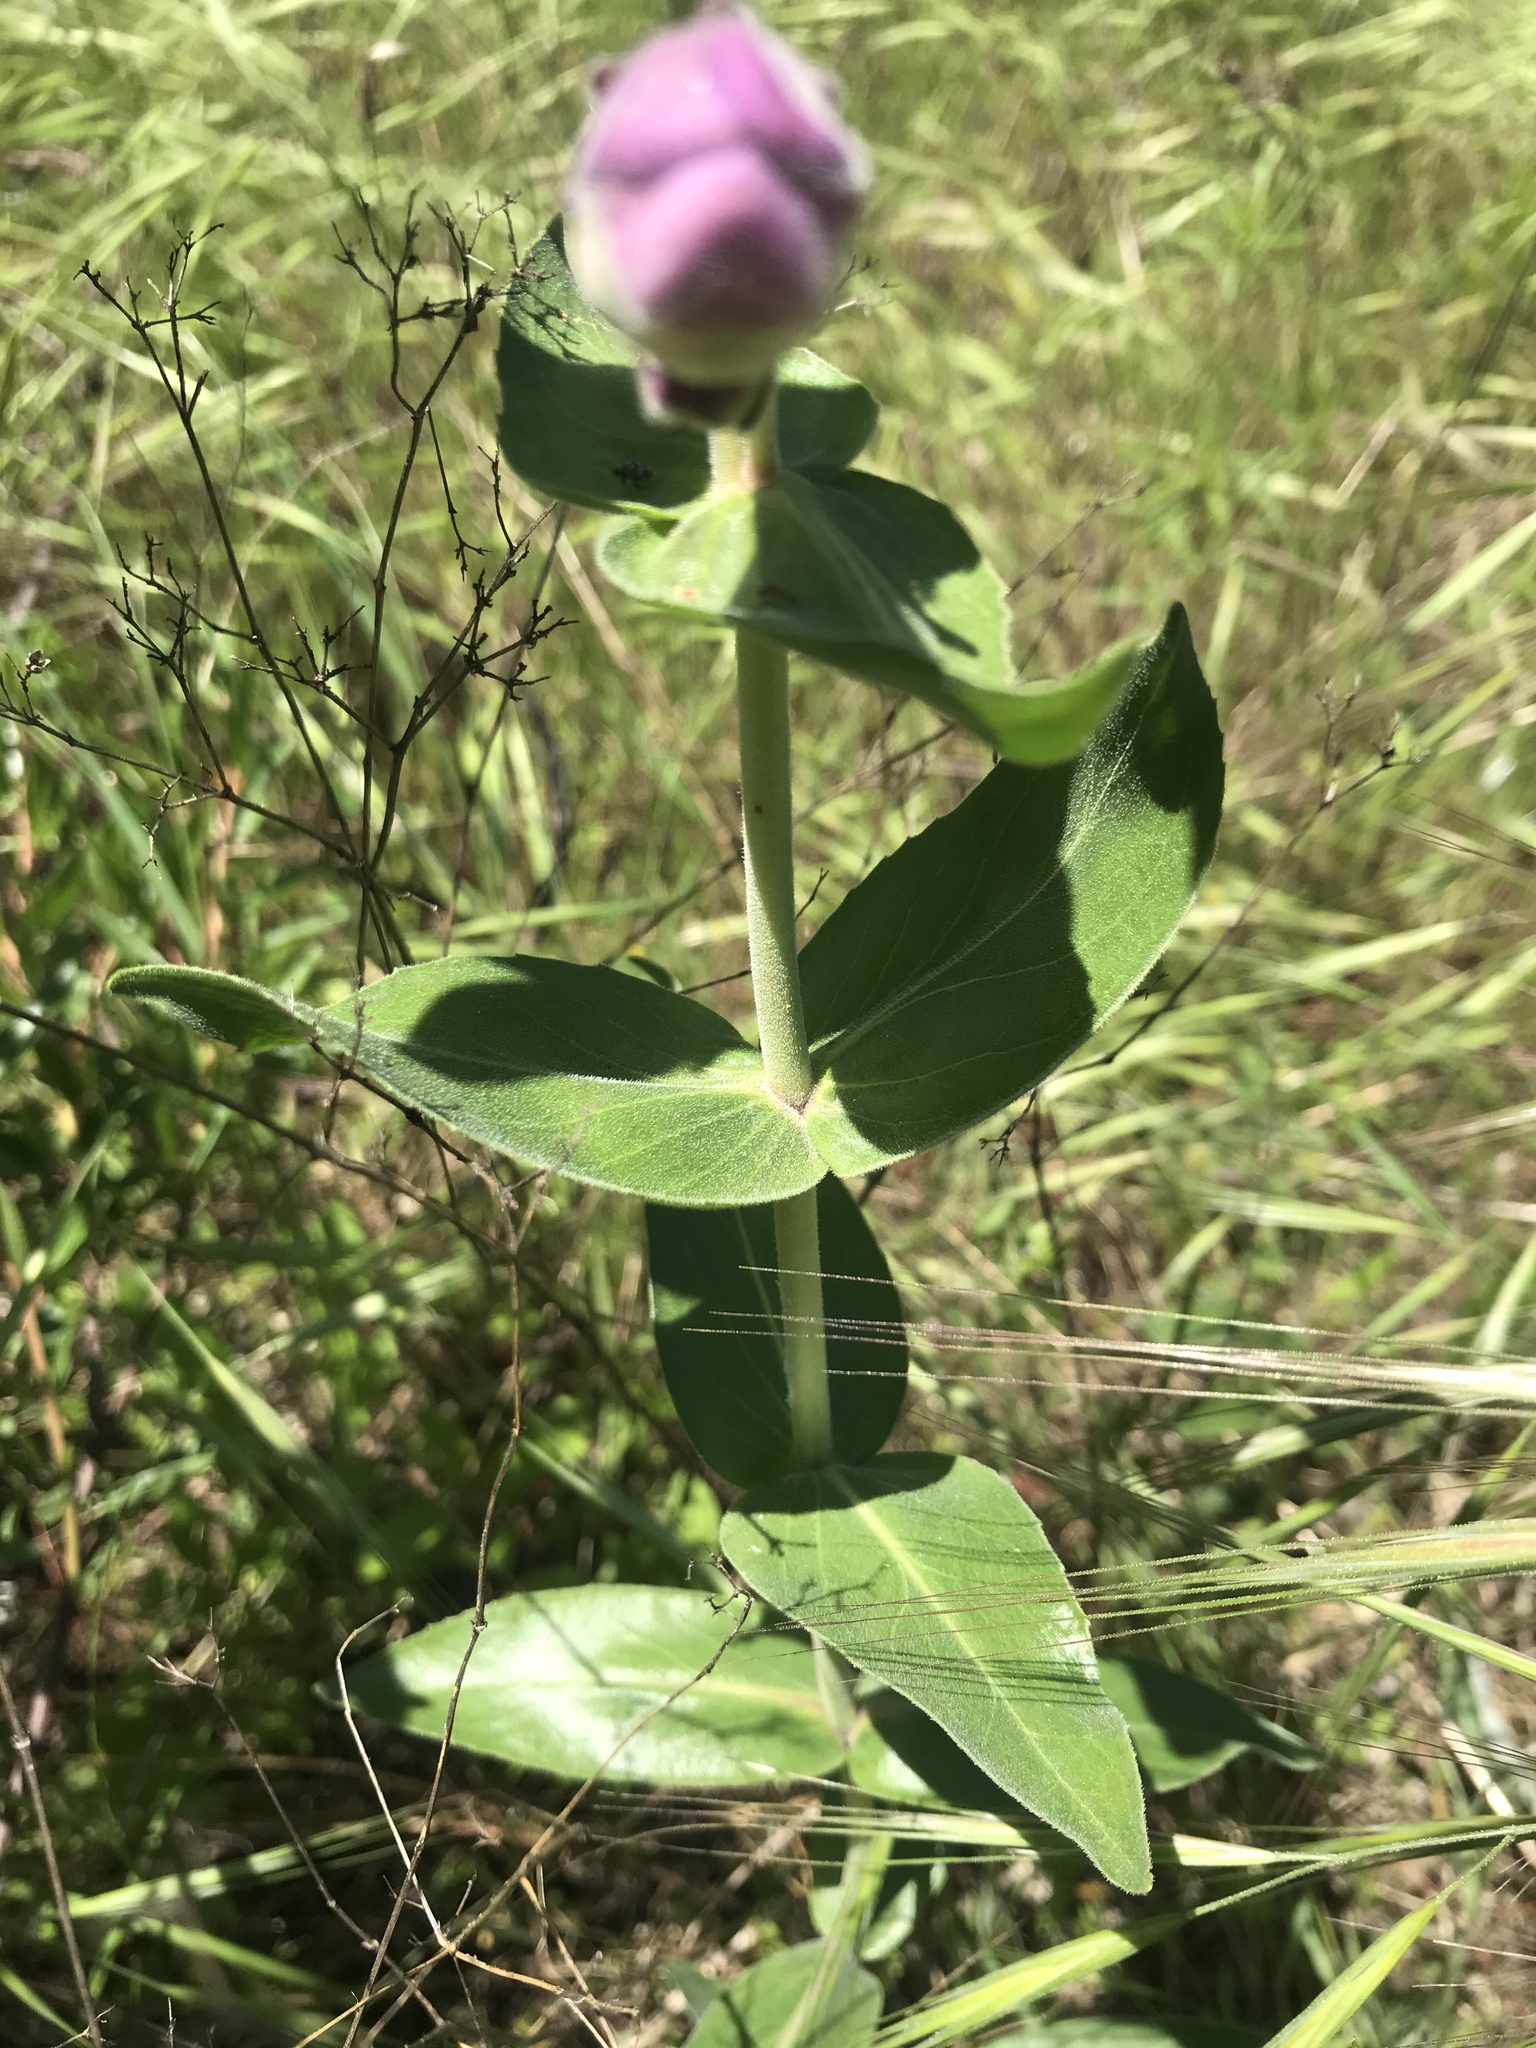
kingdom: Plantae
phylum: Tracheophyta
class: Magnoliopsida
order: Lamiales
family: Plantaginaceae
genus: Penstemon
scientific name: Penstemon cobaea
